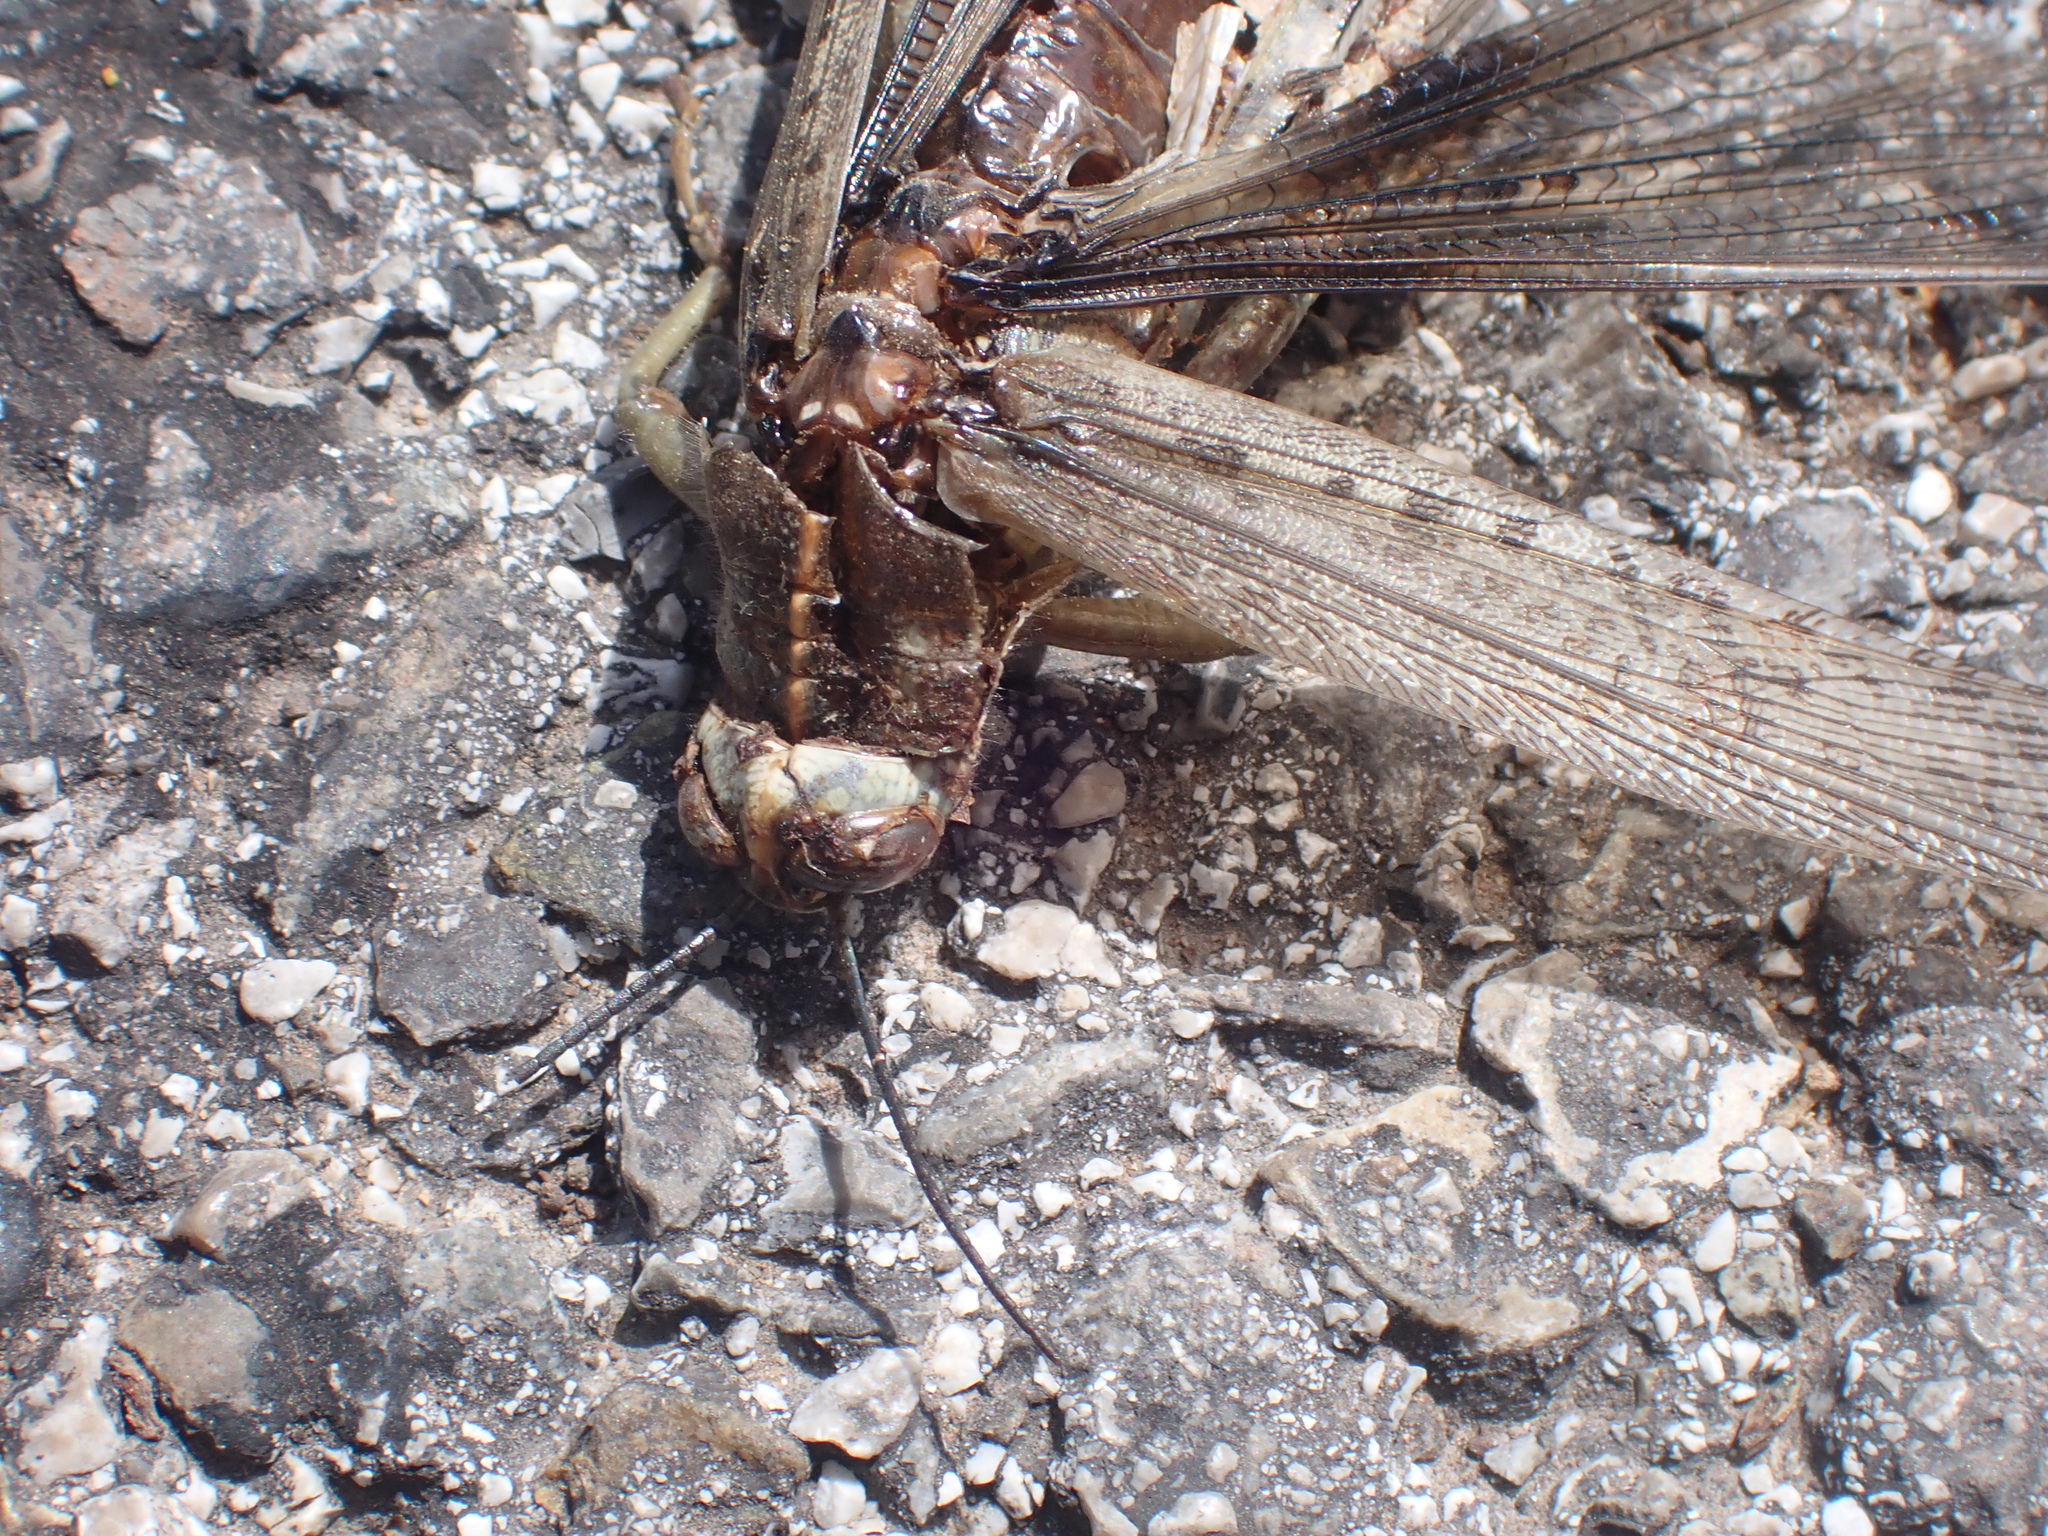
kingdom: Animalia
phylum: Arthropoda
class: Insecta
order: Orthoptera
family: Acrididae
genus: Anacridium
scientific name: Anacridium aegyptium
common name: Egyptian grasshopper
